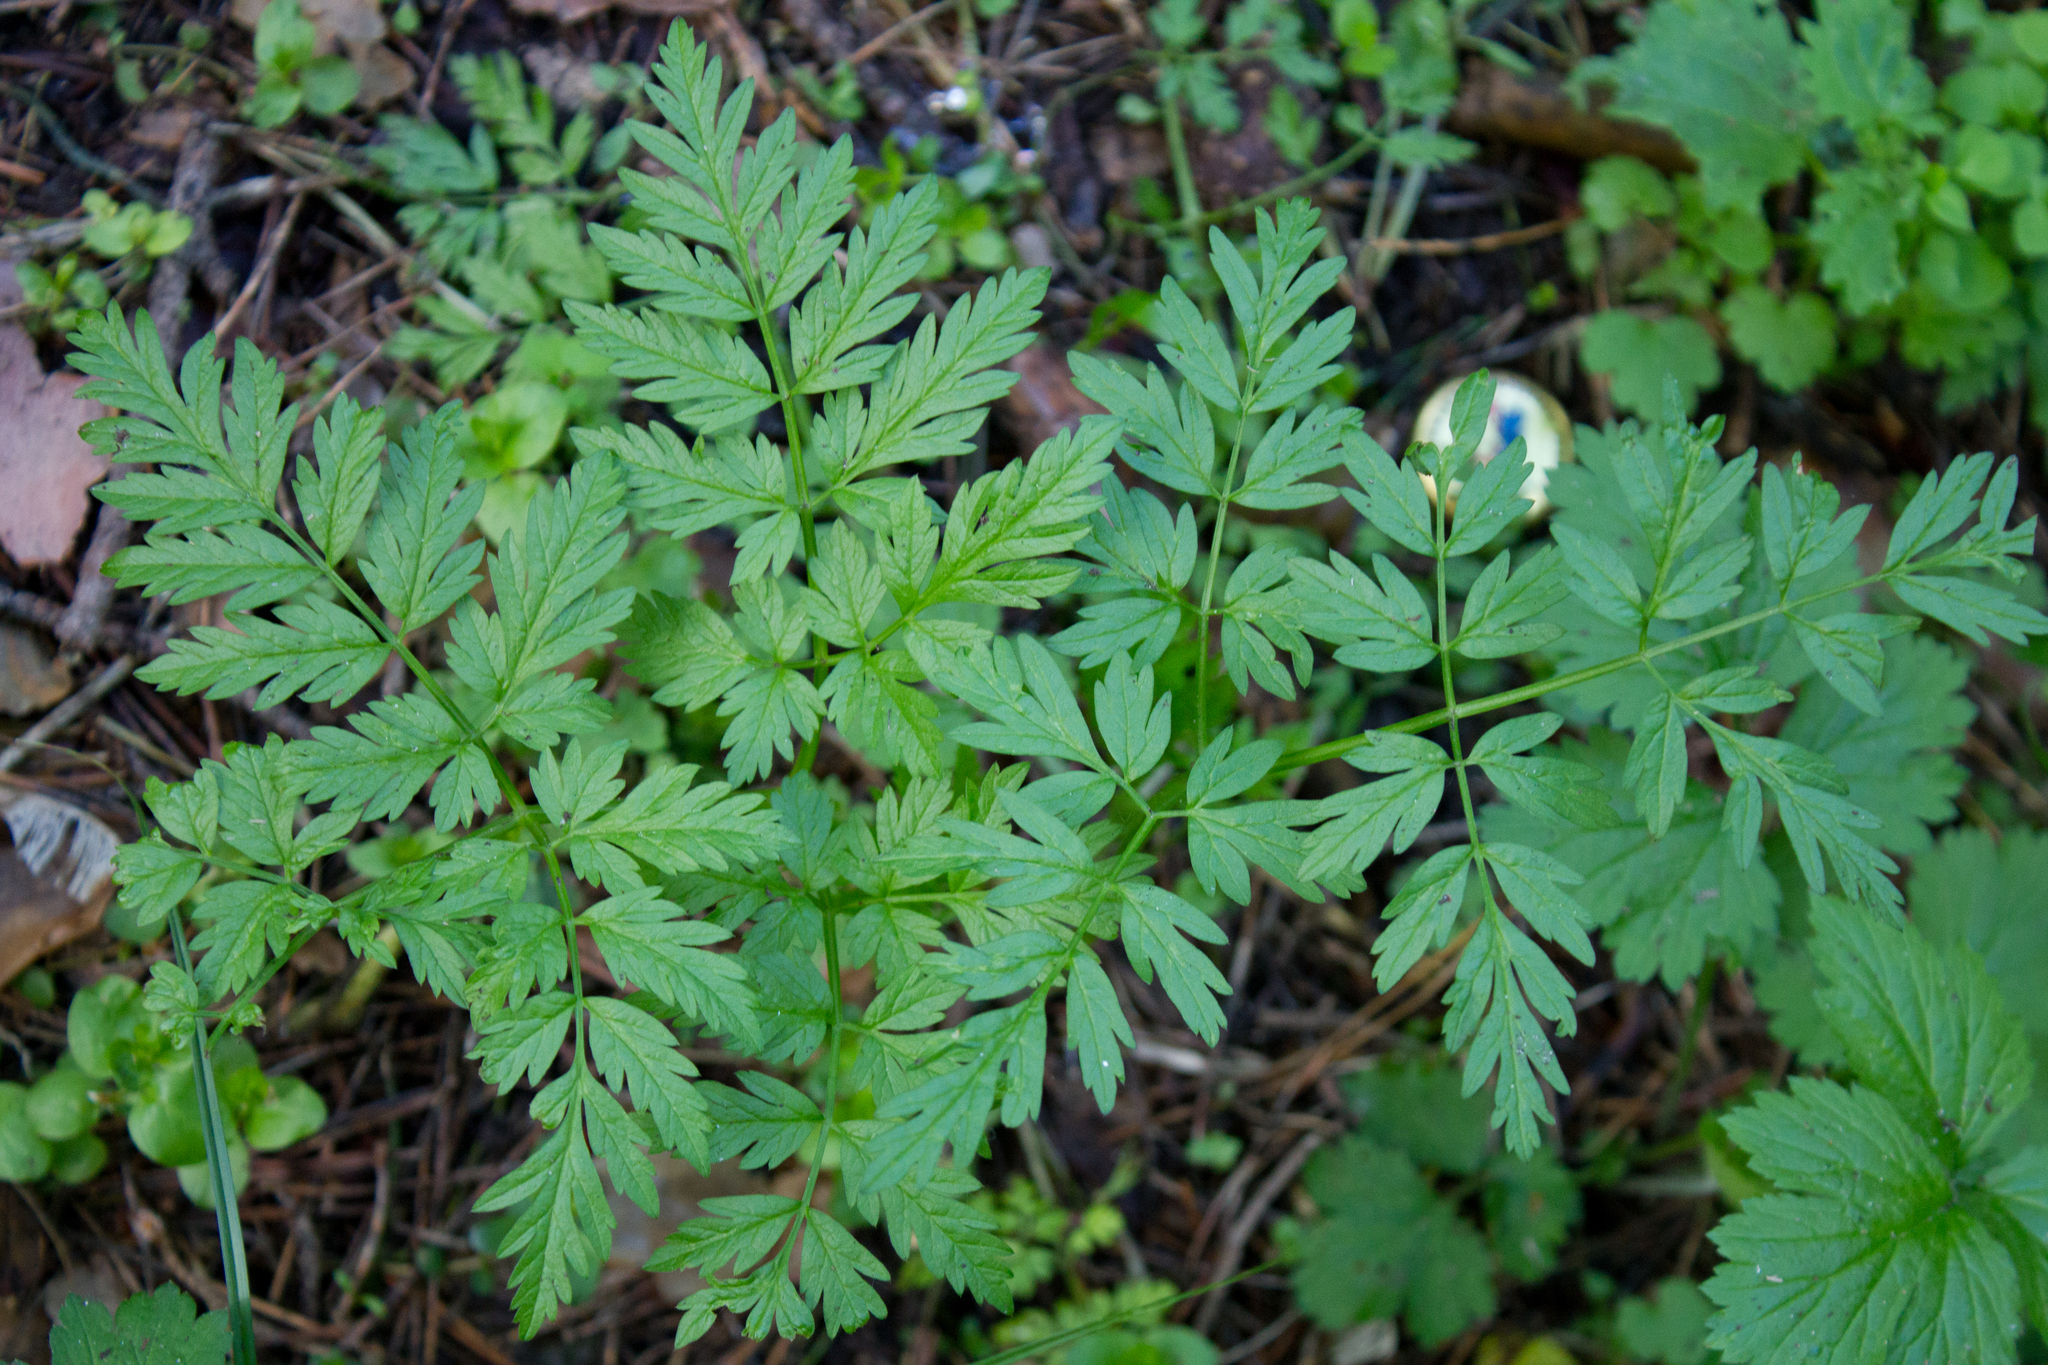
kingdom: Plantae
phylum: Tracheophyta
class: Magnoliopsida
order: Apiales
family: Apiaceae
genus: Anthriscus
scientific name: Anthriscus sylvestris
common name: Cow parsley
